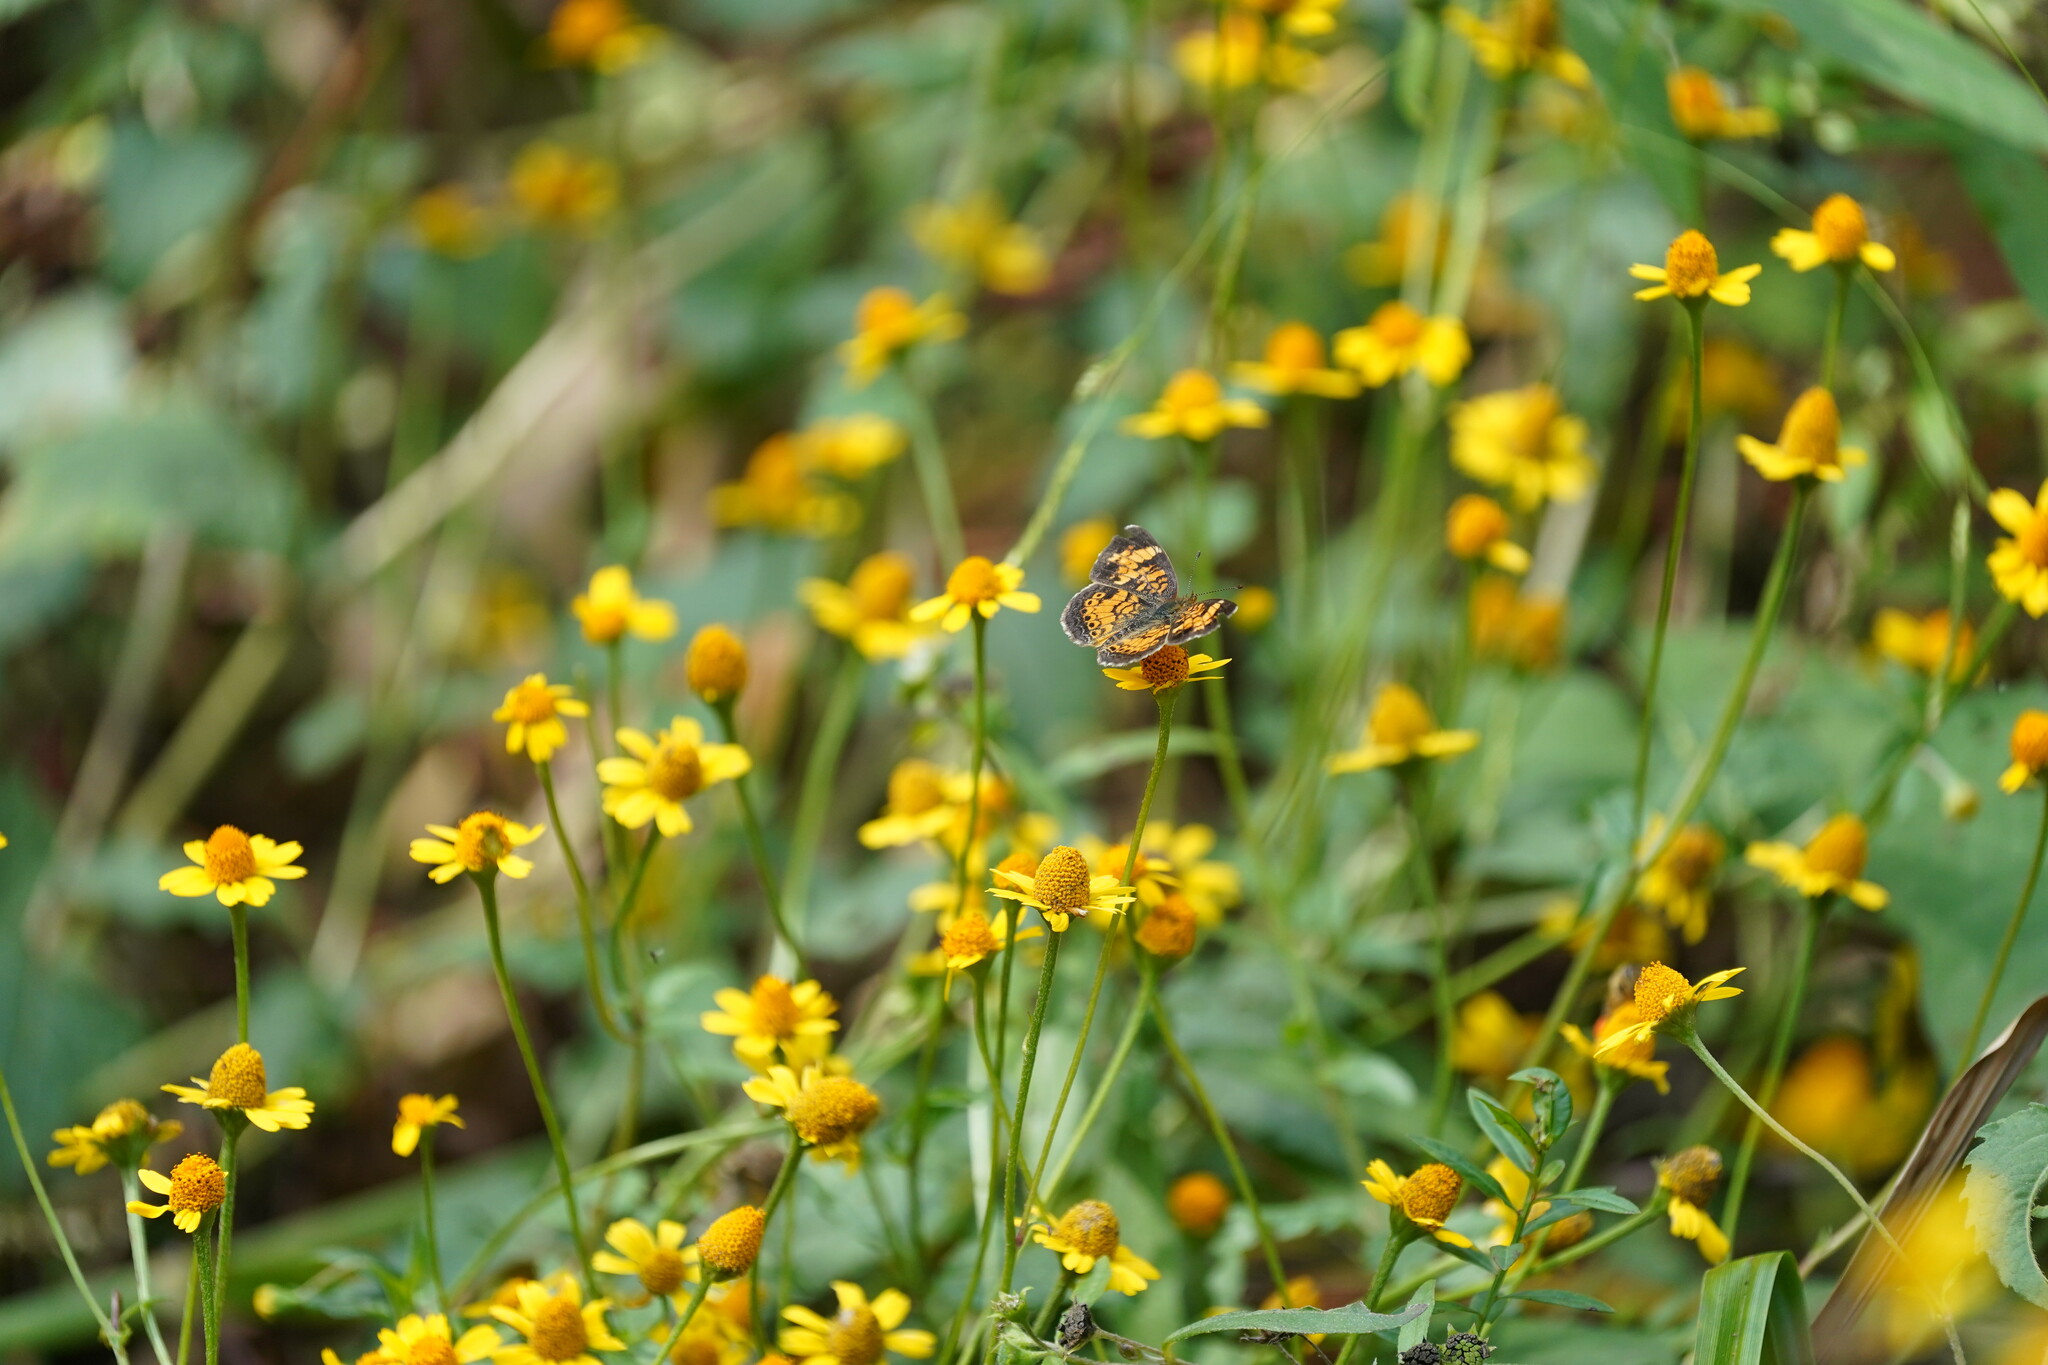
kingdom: Animalia
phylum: Arthropoda
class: Insecta
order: Lepidoptera
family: Nymphalidae
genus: Phyciodes
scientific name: Phyciodes tharos
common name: Pearl crescent
